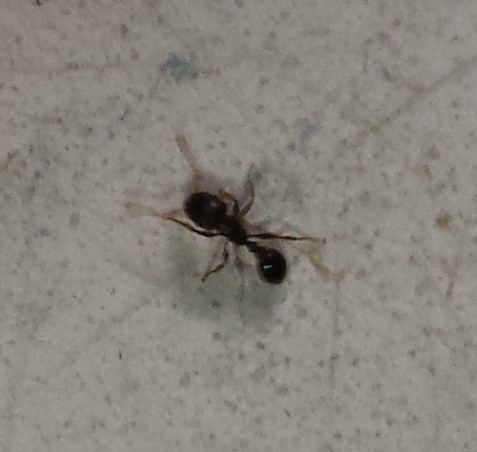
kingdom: Animalia
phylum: Arthropoda
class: Insecta
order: Hymenoptera
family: Formicidae
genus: Tetramorium
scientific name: Tetramorium immigrans
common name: Pavement ant
